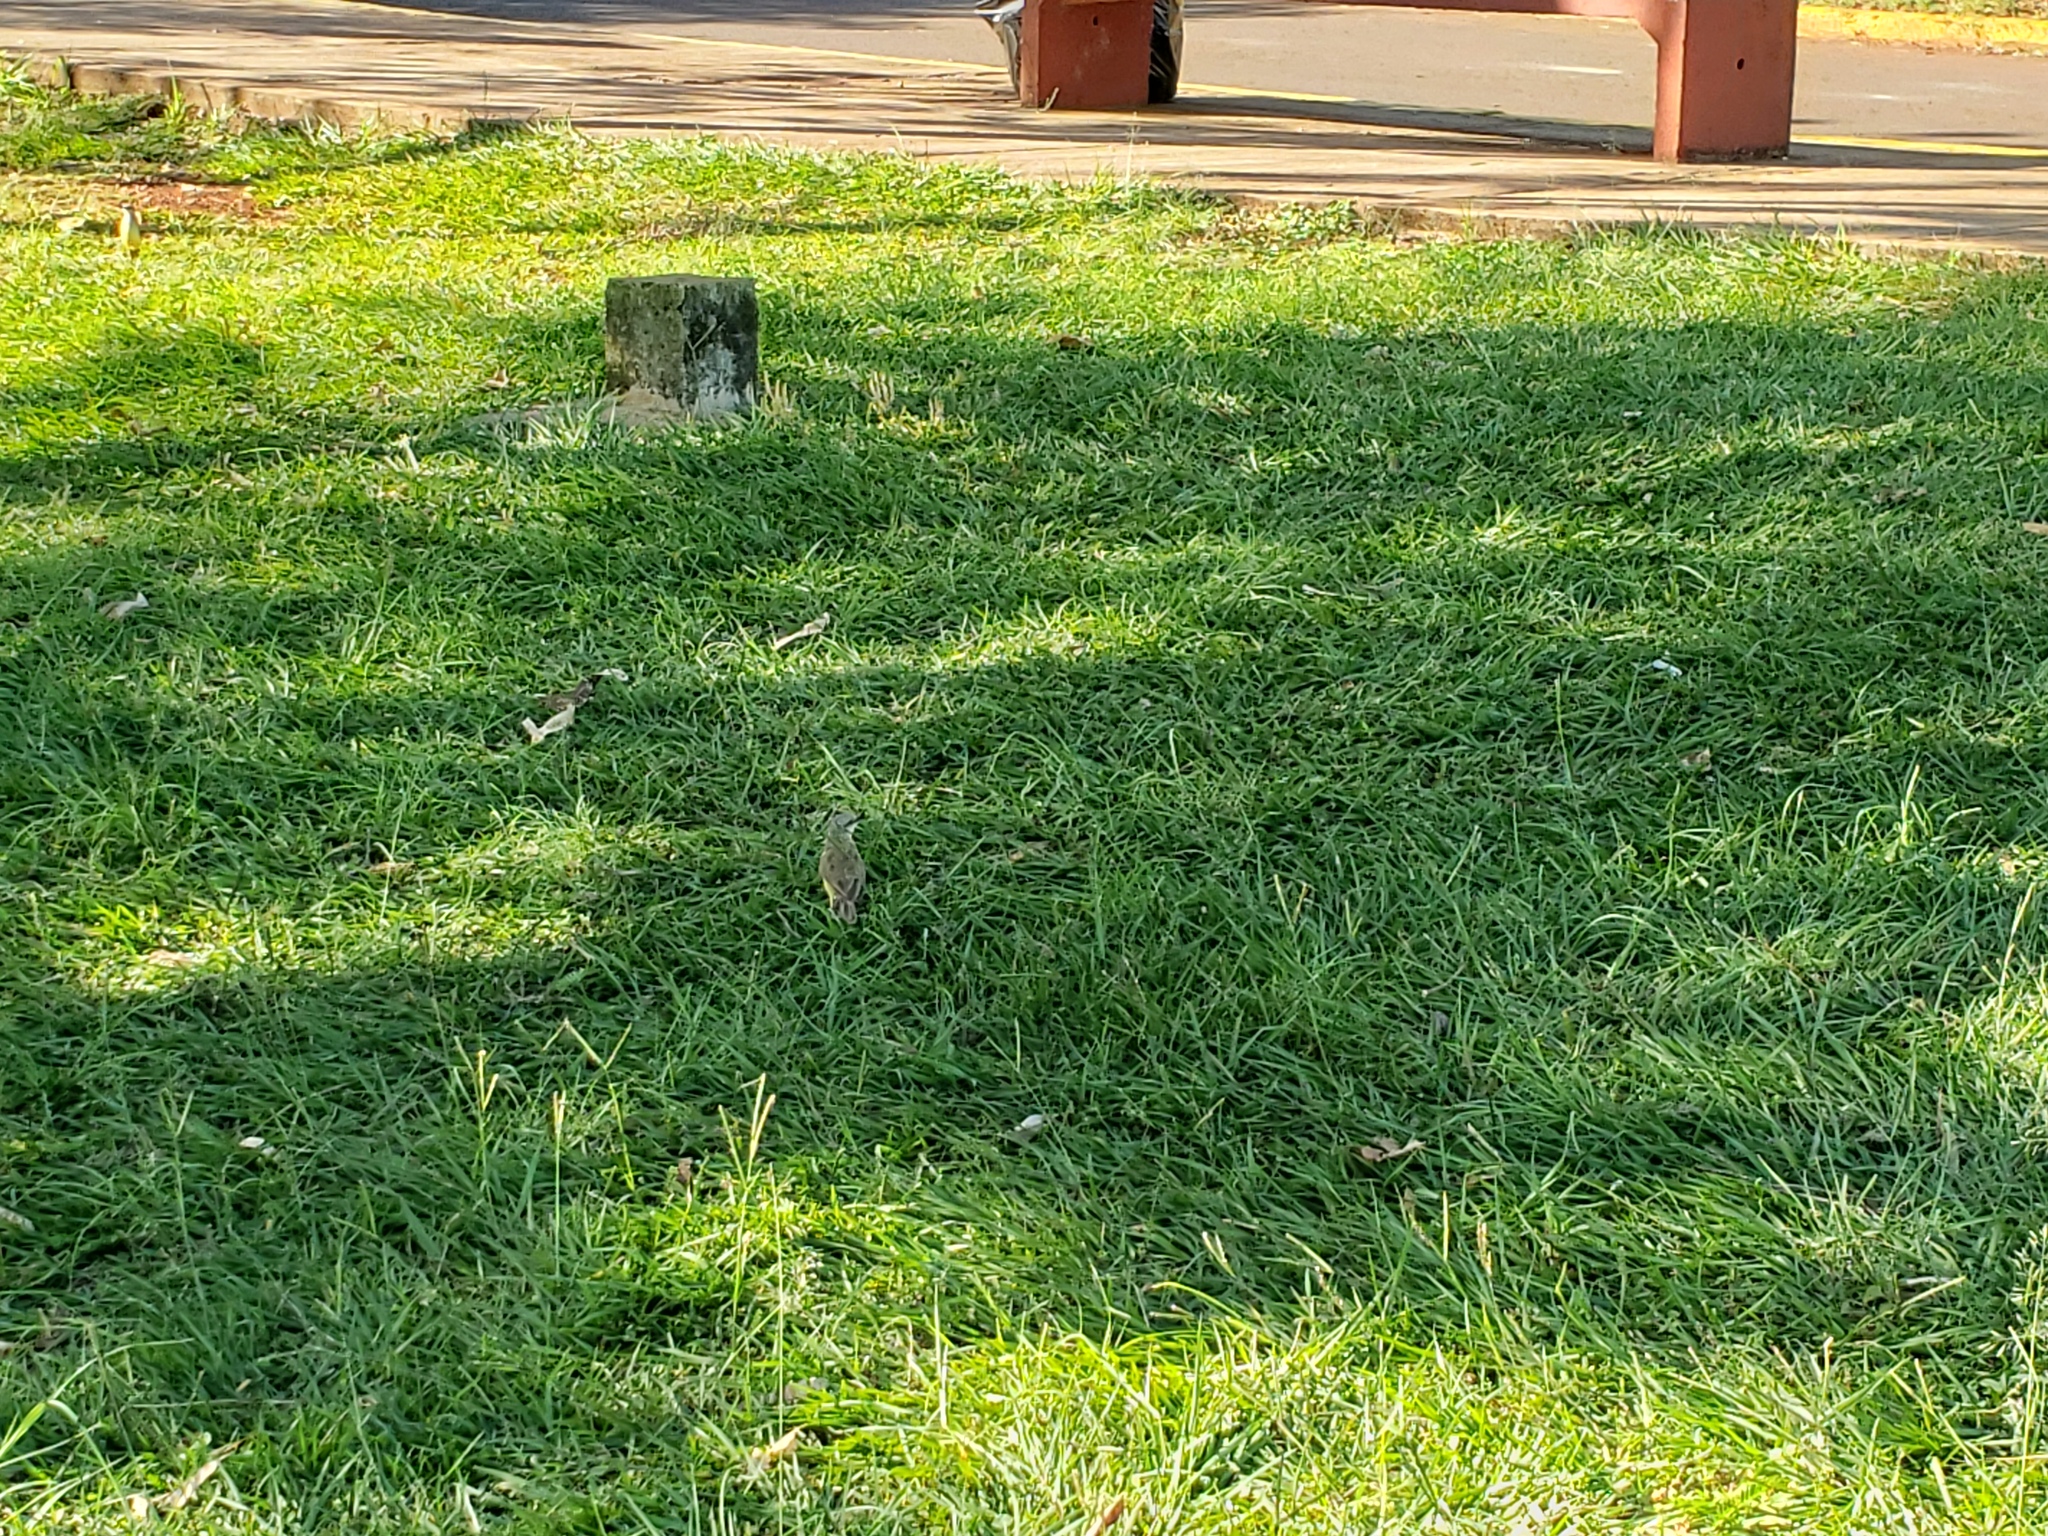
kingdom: Animalia
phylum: Chordata
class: Aves
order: Passeriformes
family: Tyrannidae
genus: Machetornis
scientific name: Machetornis rixosa
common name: Cattle tyrant
